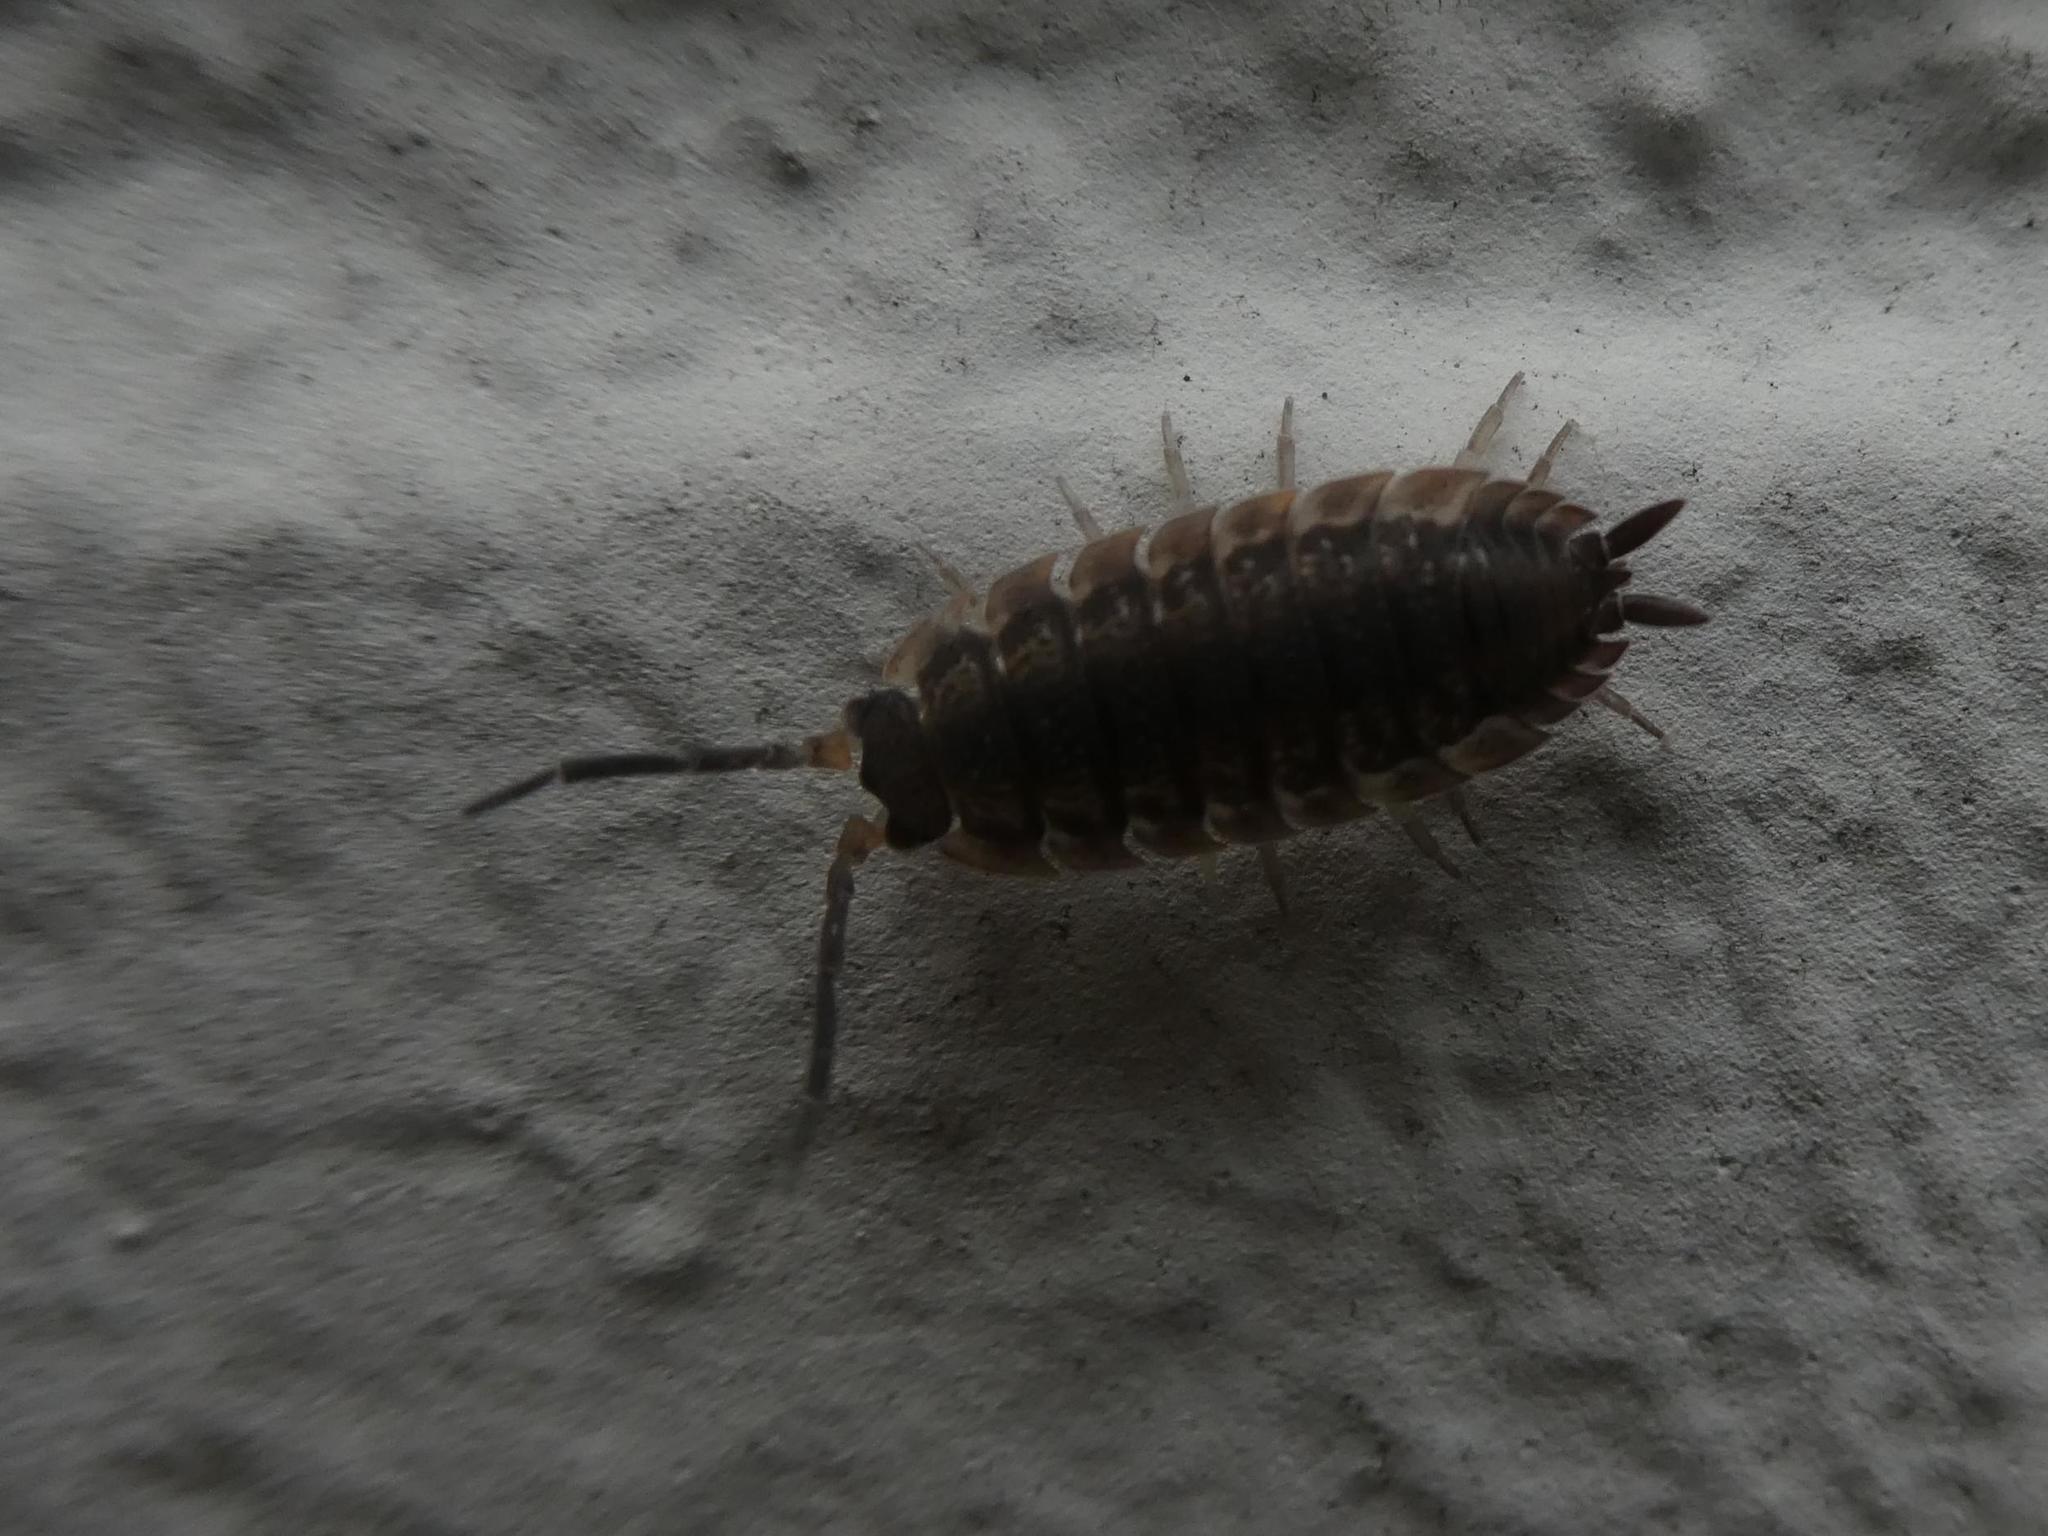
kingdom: Animalia
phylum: Arthropoda
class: Malacostraca
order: Isopoda
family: Porcellionidae
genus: Porcellio
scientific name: Porcellio scaber
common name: Common rough woodlouse
